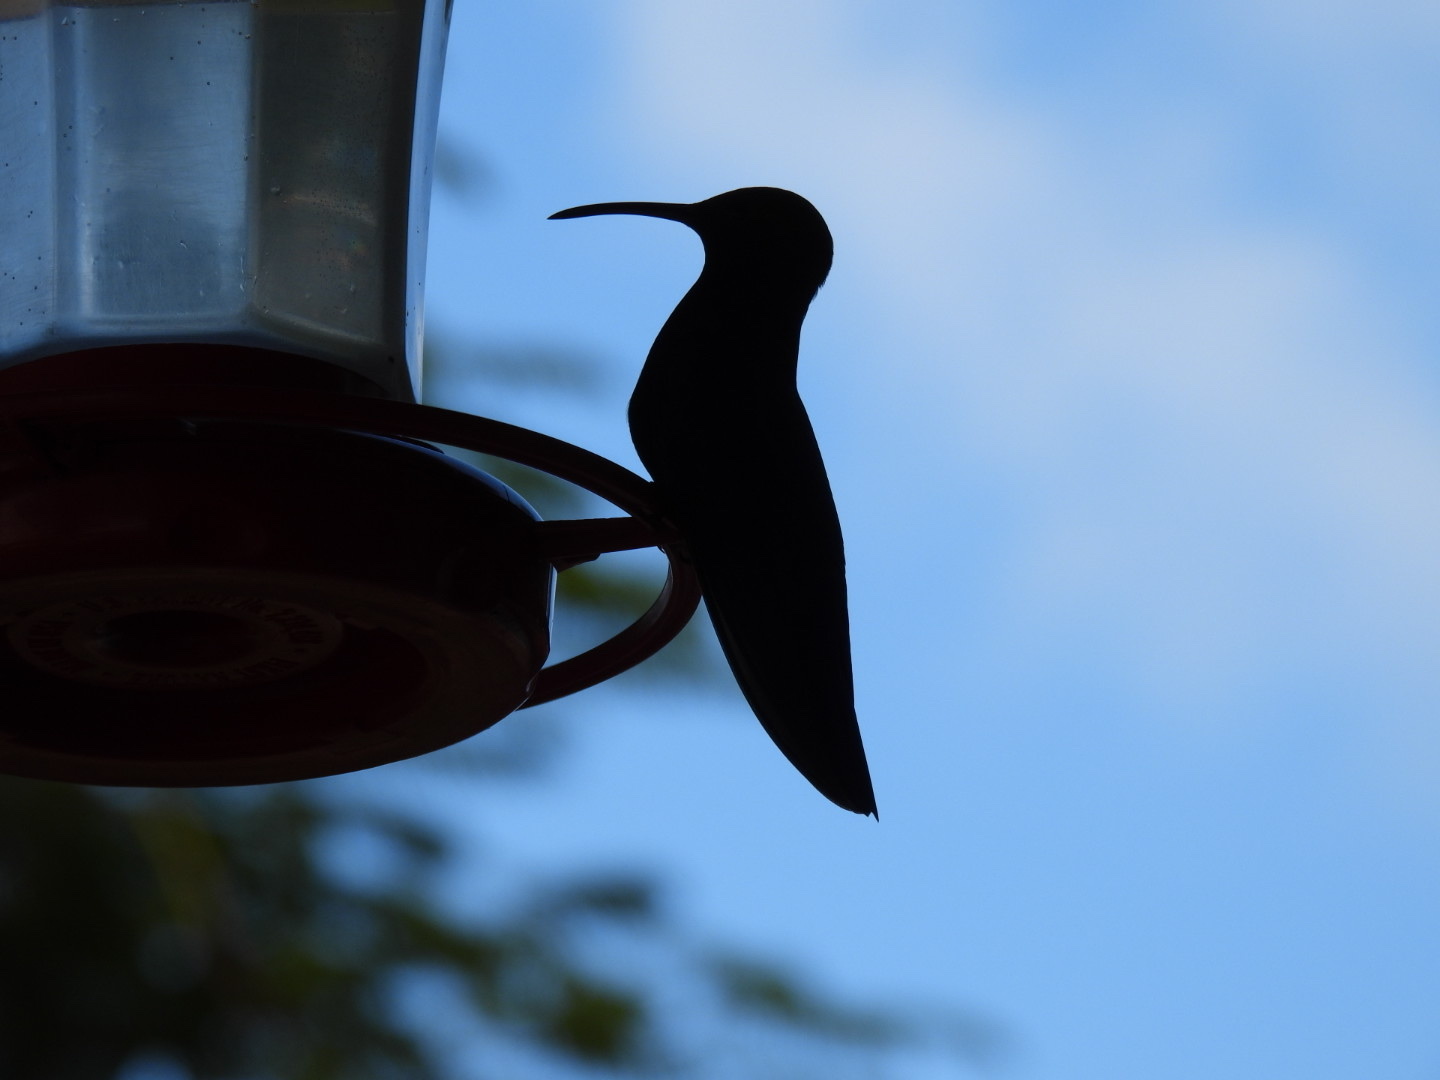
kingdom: Animalia
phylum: Chordata
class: Aves
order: Apodiformes
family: Trochilidae
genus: Anthracothorax
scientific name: Anthracothorax mango
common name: Jamaican mango
